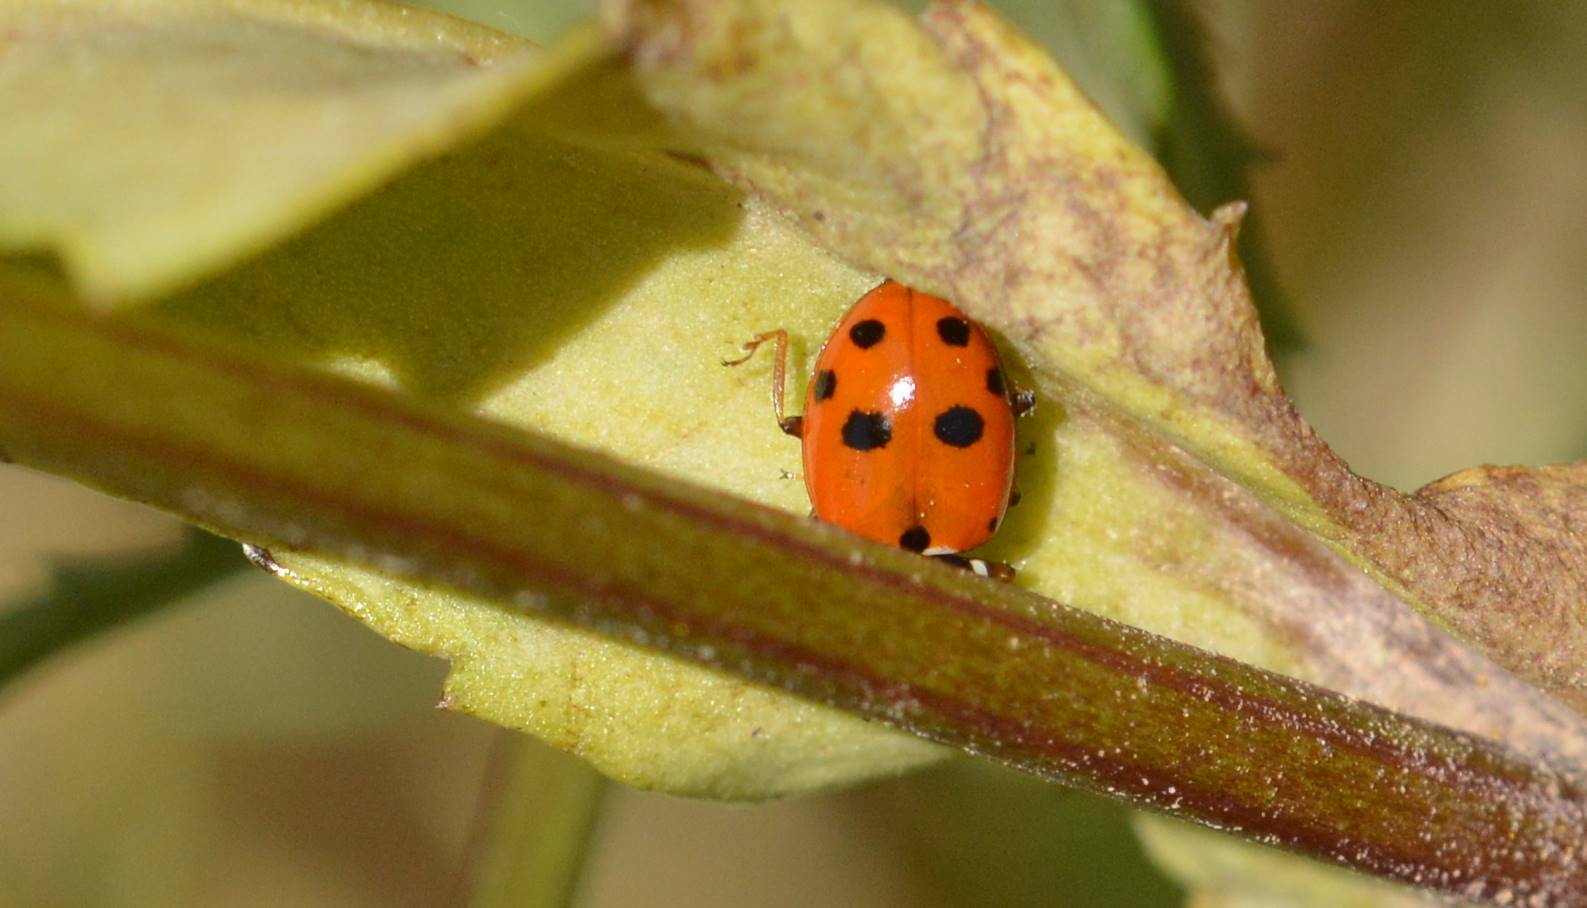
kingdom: Animalia
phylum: Arthropoda
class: Insecta
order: Coleoptera
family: Coccinellidae
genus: Hippodamia
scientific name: Hippodamia variegata
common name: Ladybird beetle
